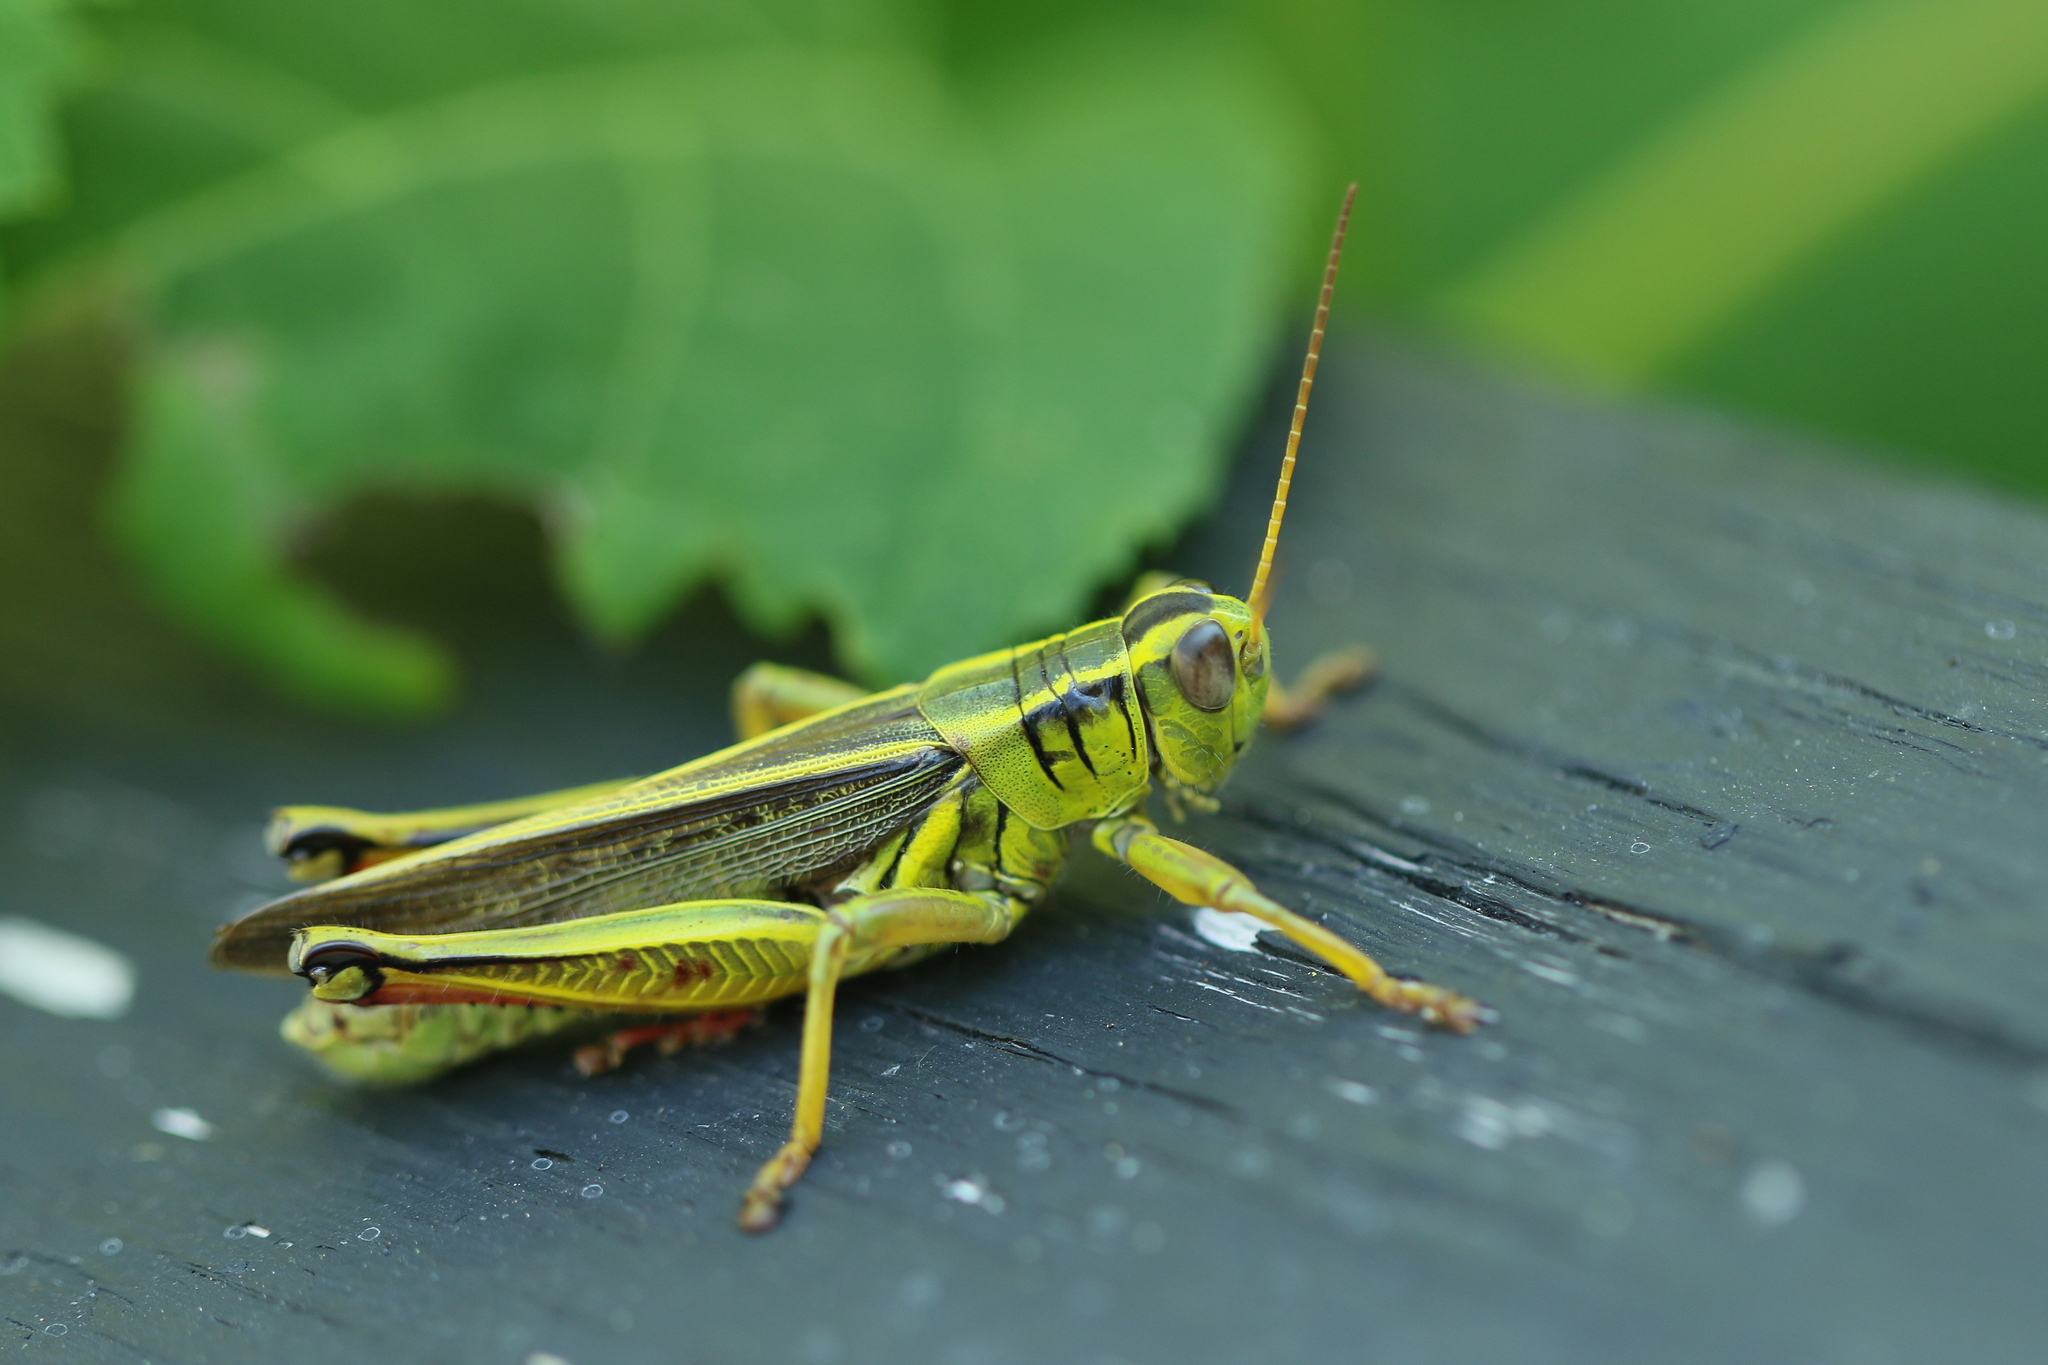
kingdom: Animalia
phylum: Arthropoda
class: Insecta
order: Orthoptera
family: Acrididae
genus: Melanoplus
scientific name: Melanoplus bivittatus
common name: Two-striped grasshopper
